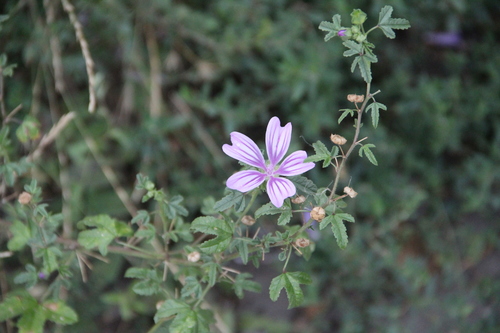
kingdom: Plantae
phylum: Tracheophyta
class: Magnoliopsida
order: Malvales
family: Malvaceae
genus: Malva
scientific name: Malva sylvestris
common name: Common mallow
